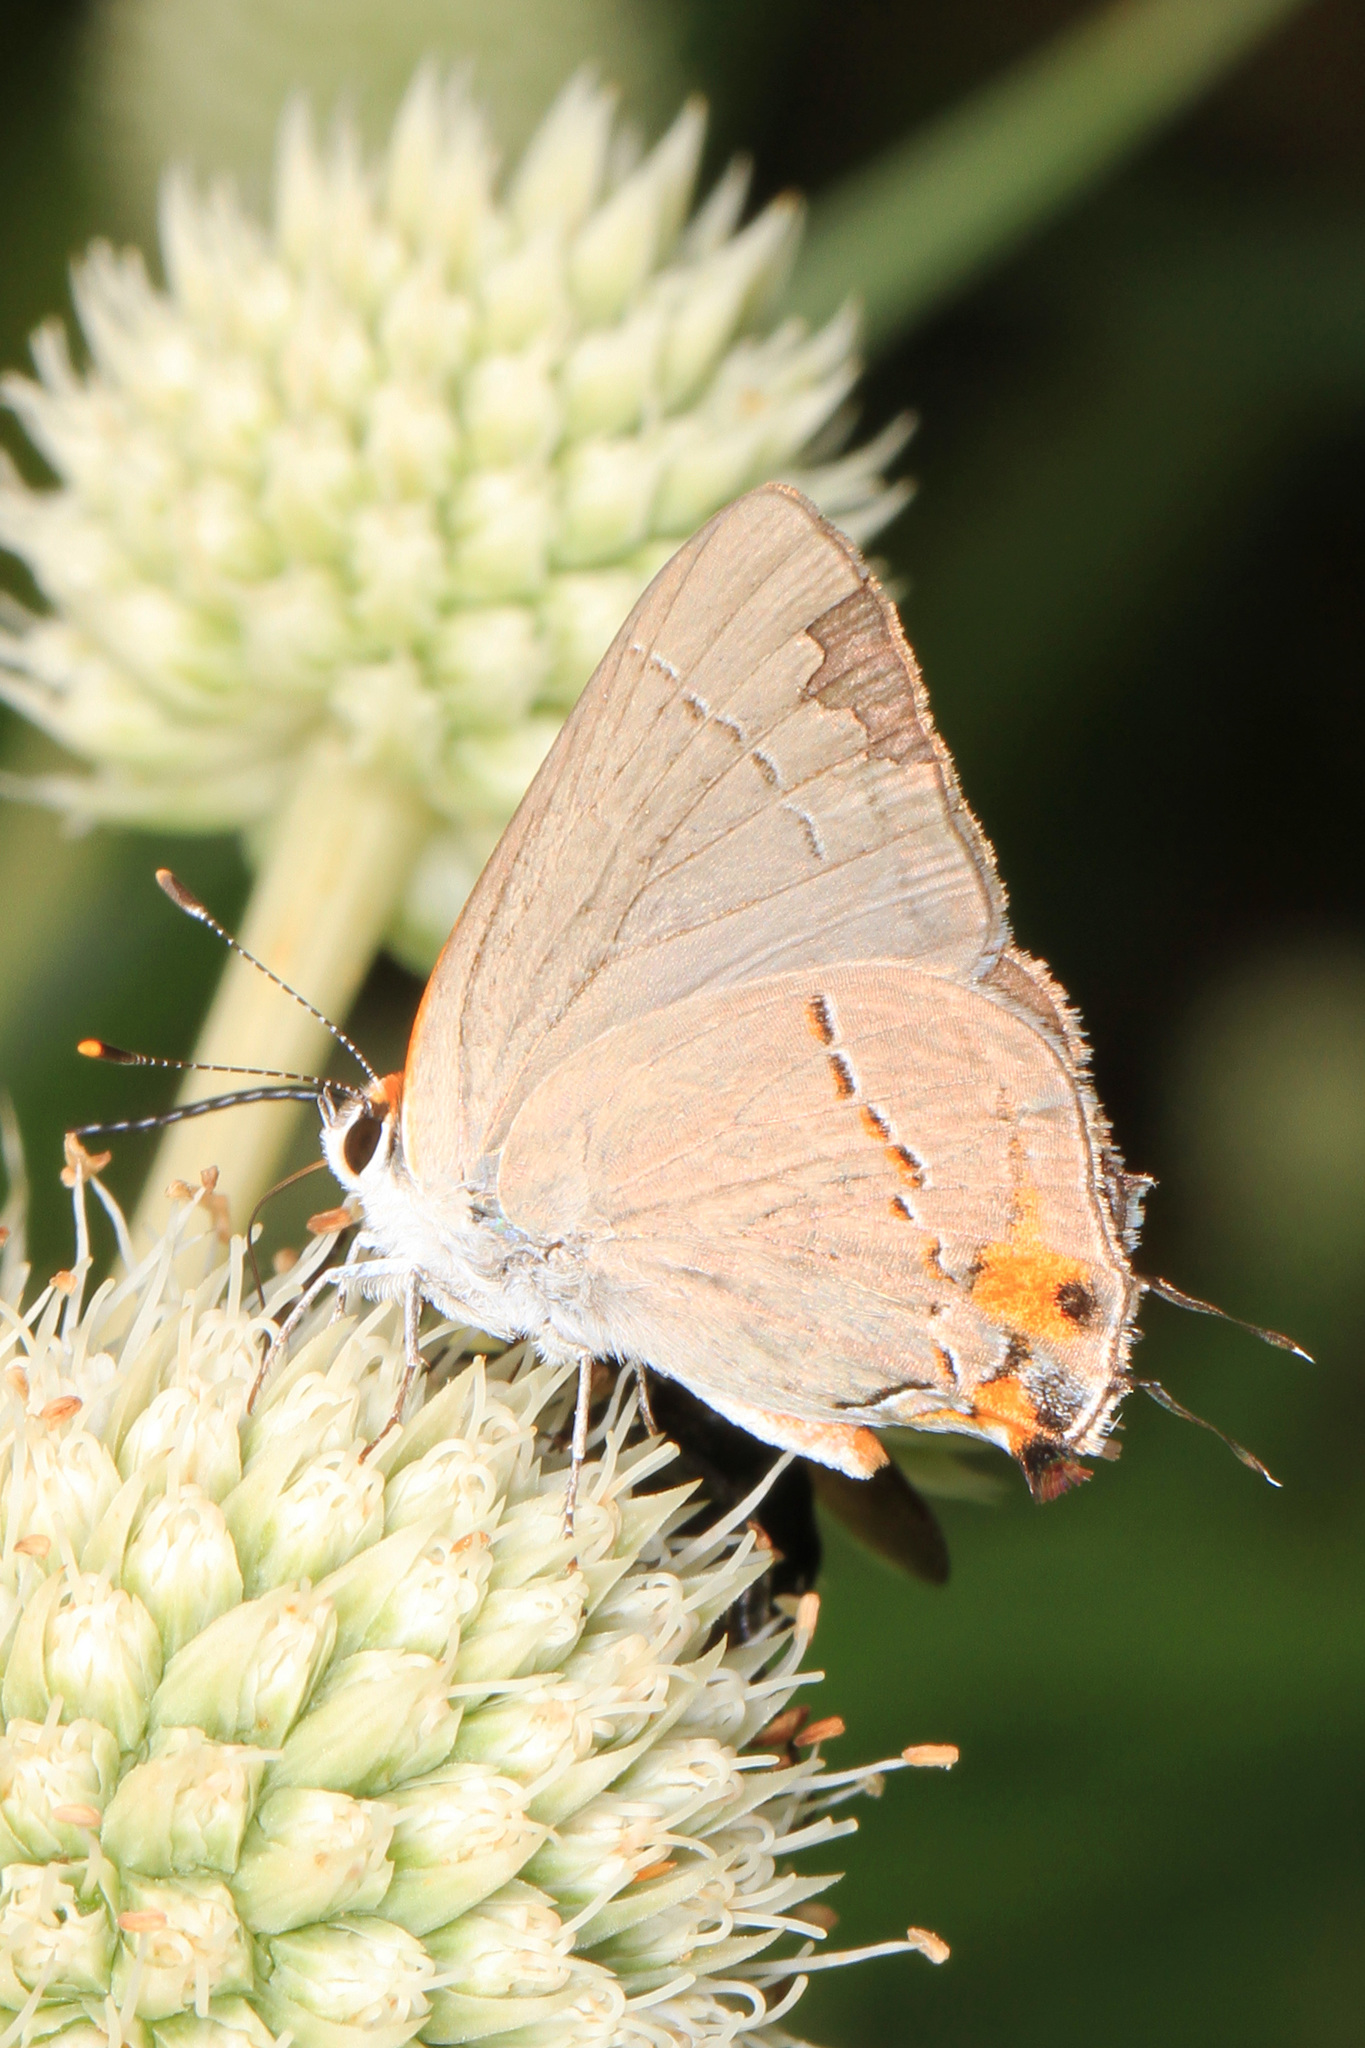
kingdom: Animalia
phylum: Arthropoda
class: Insecta
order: Lepidoptera
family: Lycaenidae
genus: Strymon
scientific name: Strymon melinus
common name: Gray hairstreak
